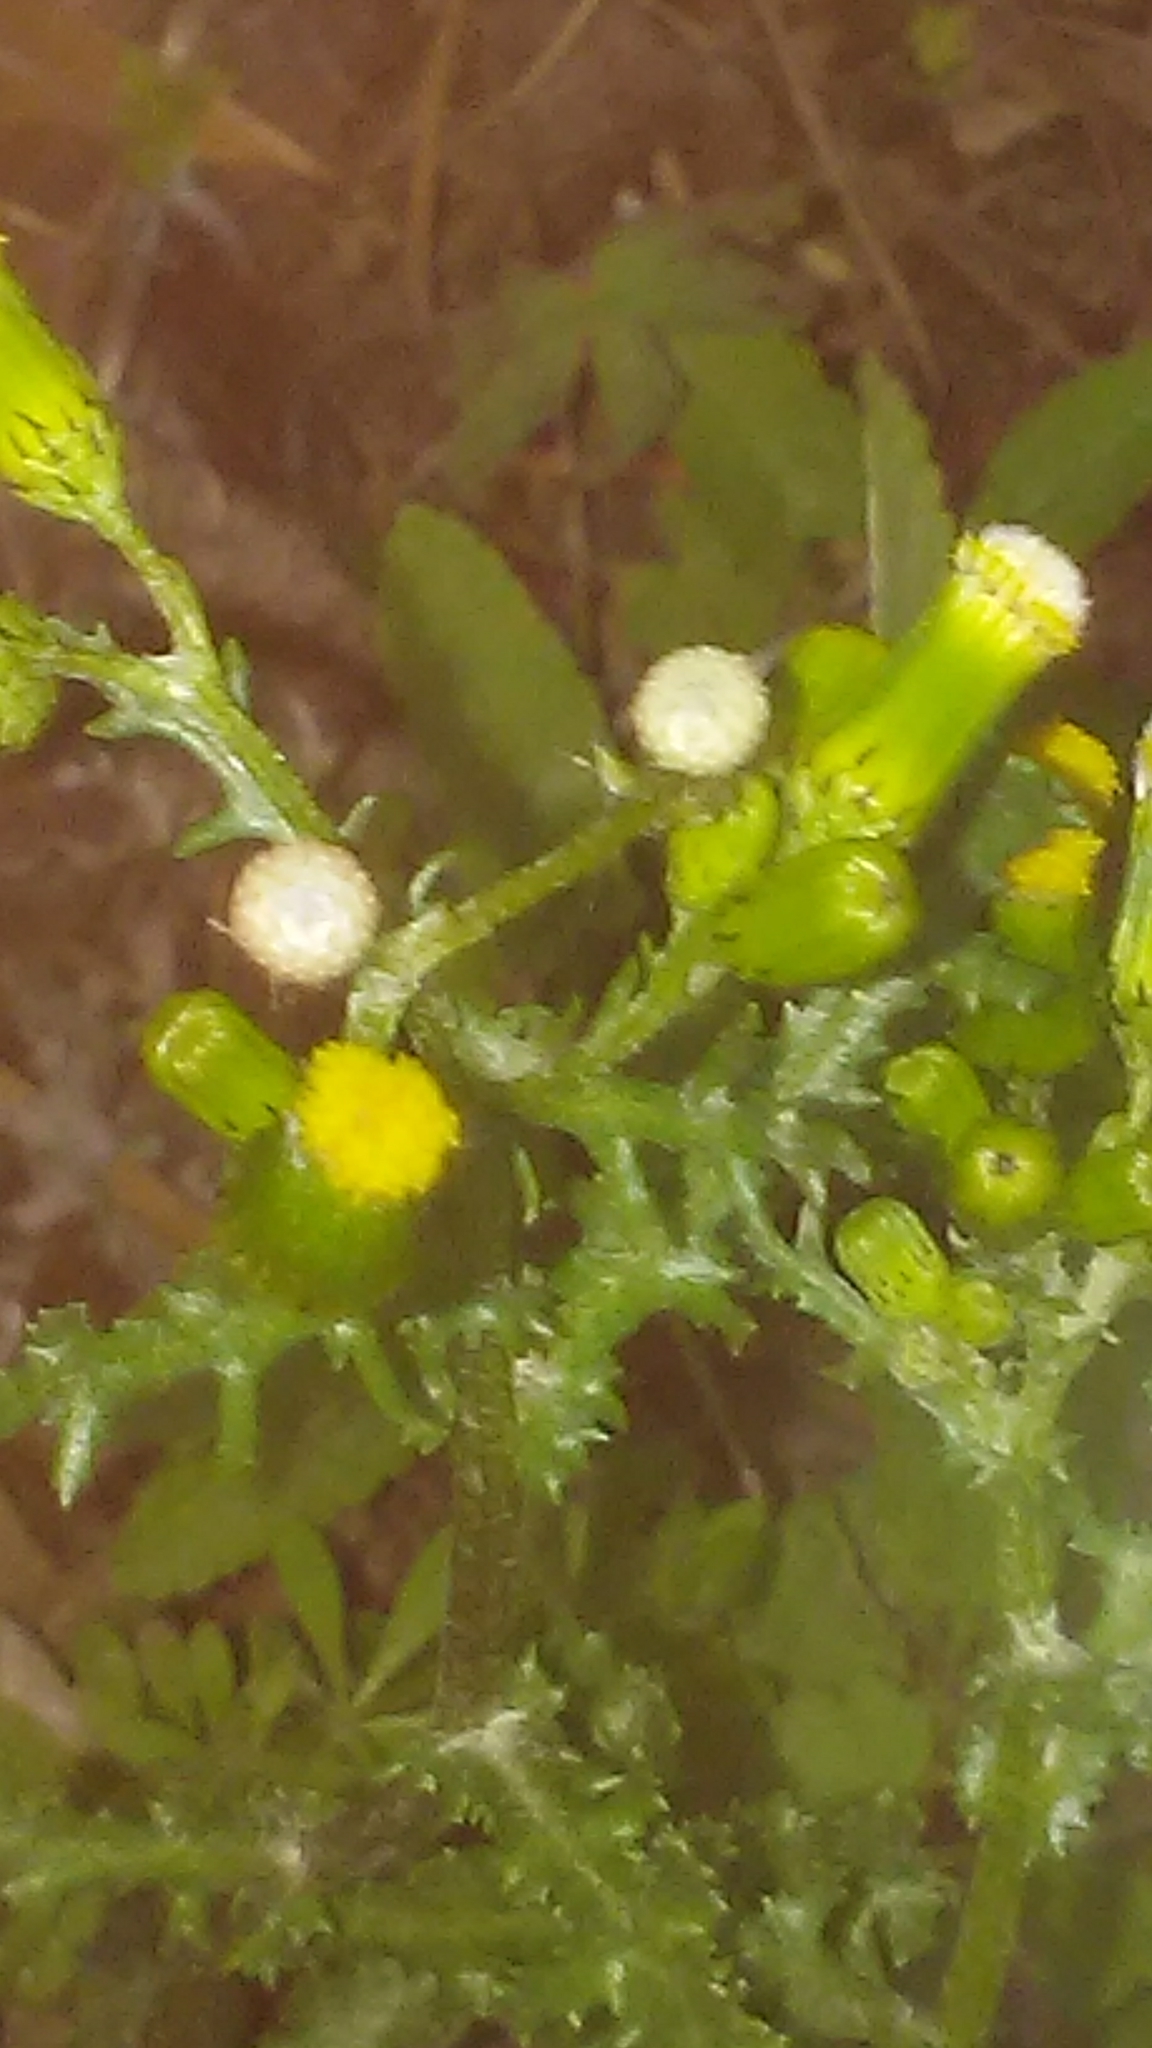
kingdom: Plantae
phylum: Tracheophyta
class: Magnoliopsida
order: Asterales
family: Asteraceae
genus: Senecio
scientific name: Senecio vulgaris
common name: Old-man-in-the-spring
